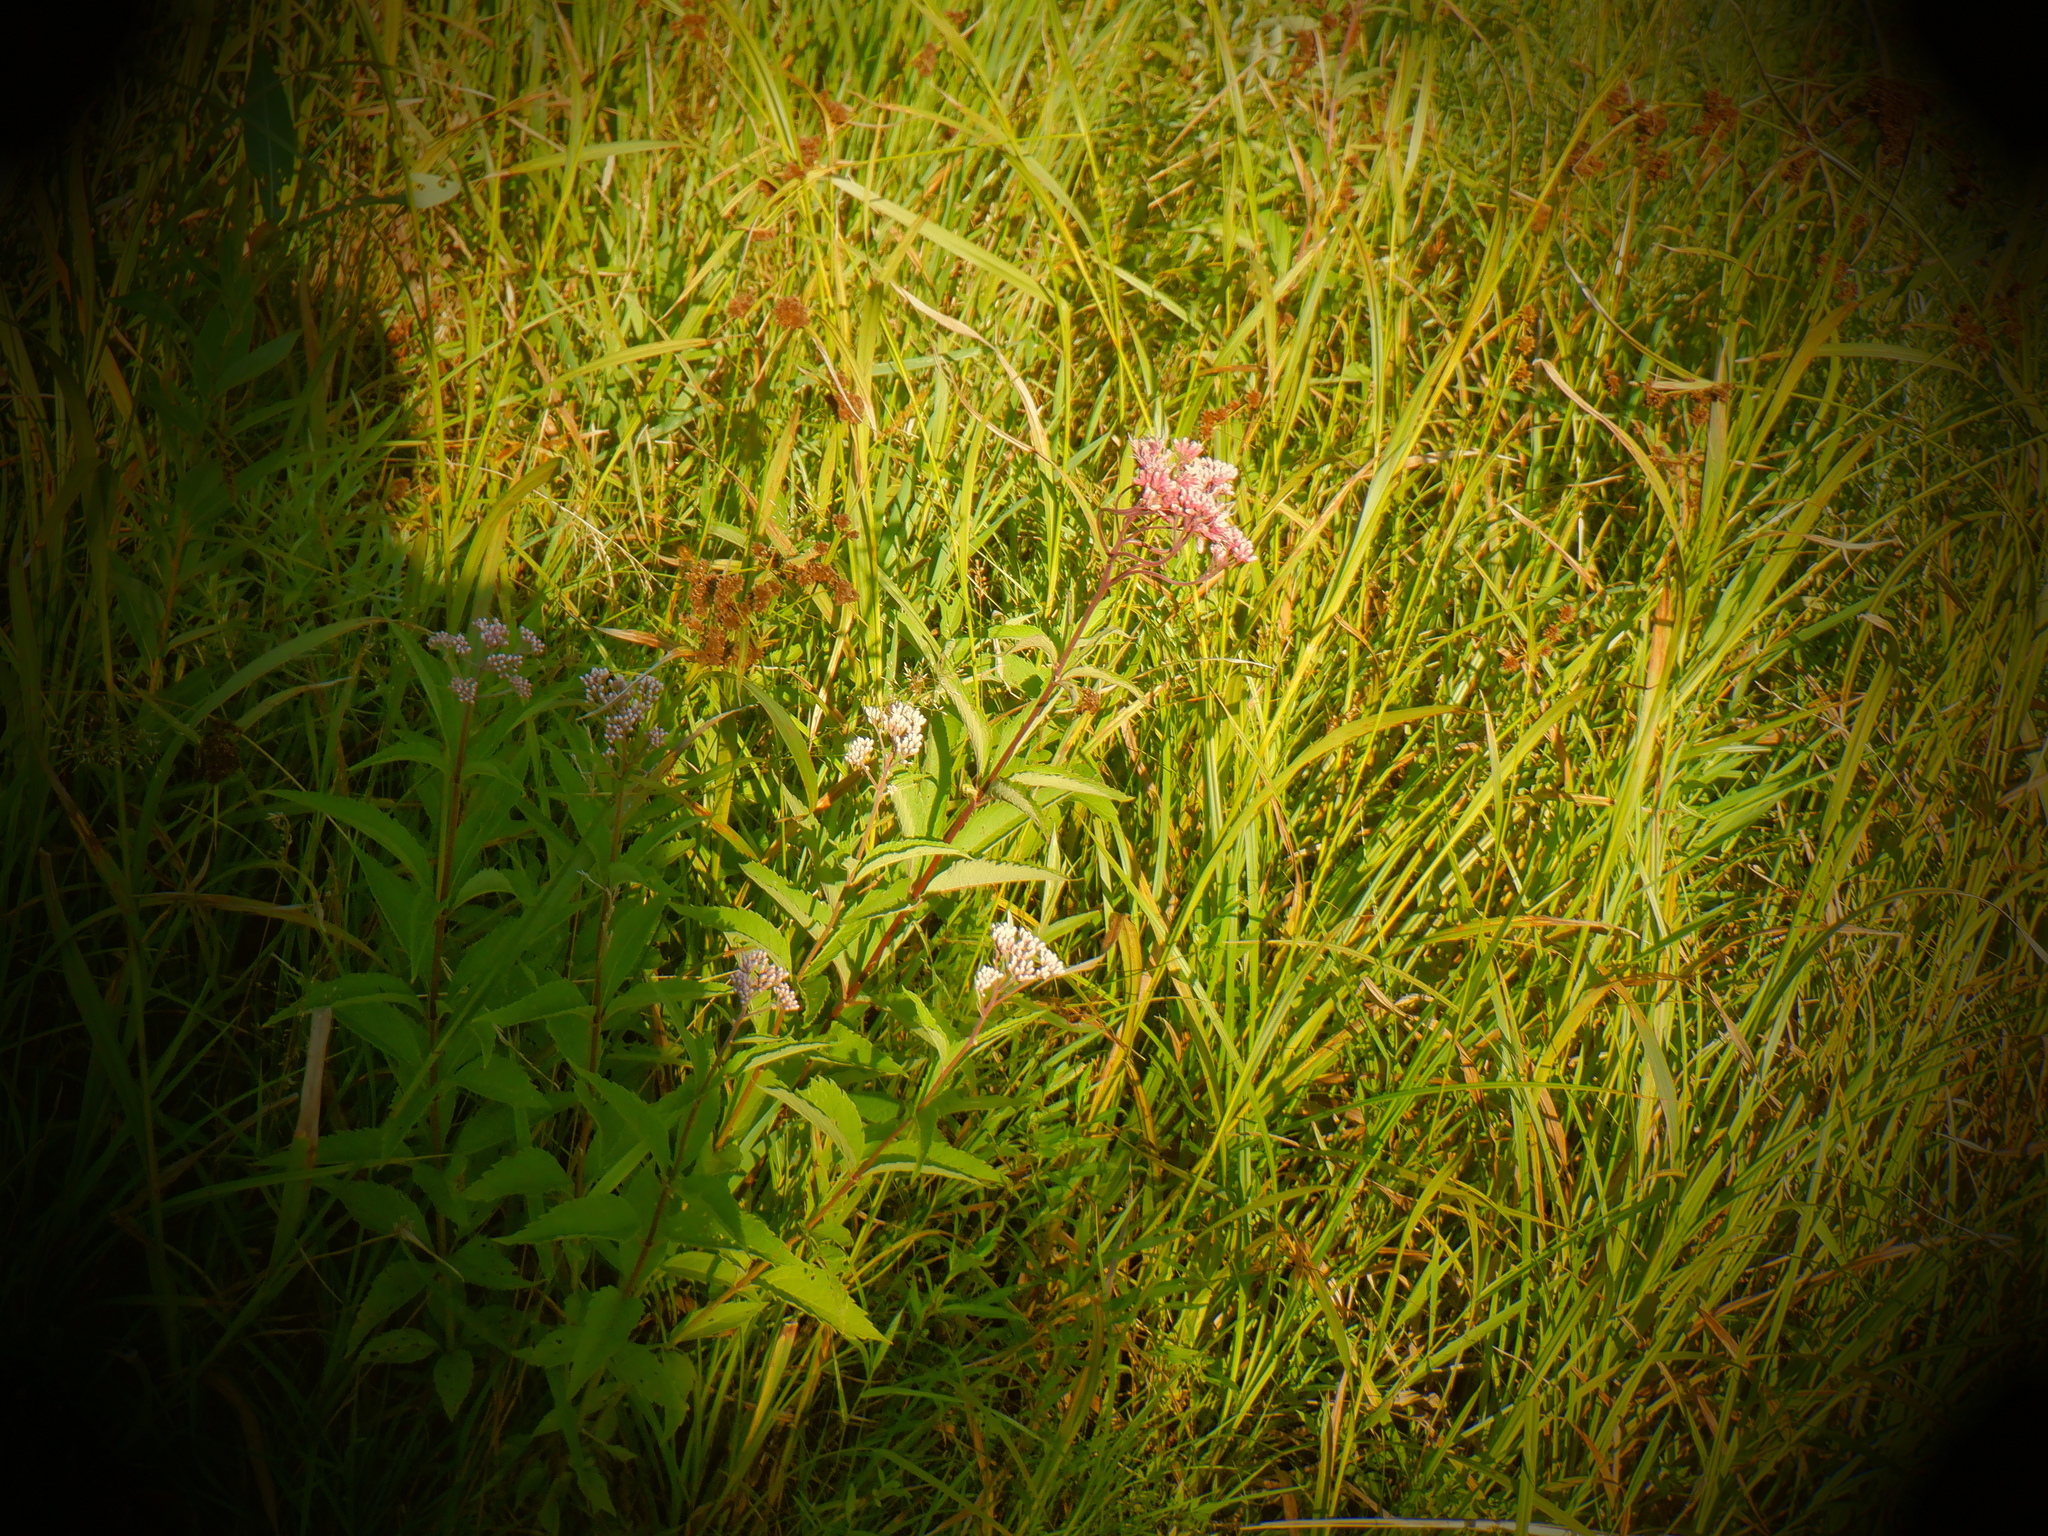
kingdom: Plantae
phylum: Tracheophyta
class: Magnoliopsida
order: Asterales
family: Asteraceae
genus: Eutrochium
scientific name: Eutrochium maculatum
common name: Spotted joe pye weed
